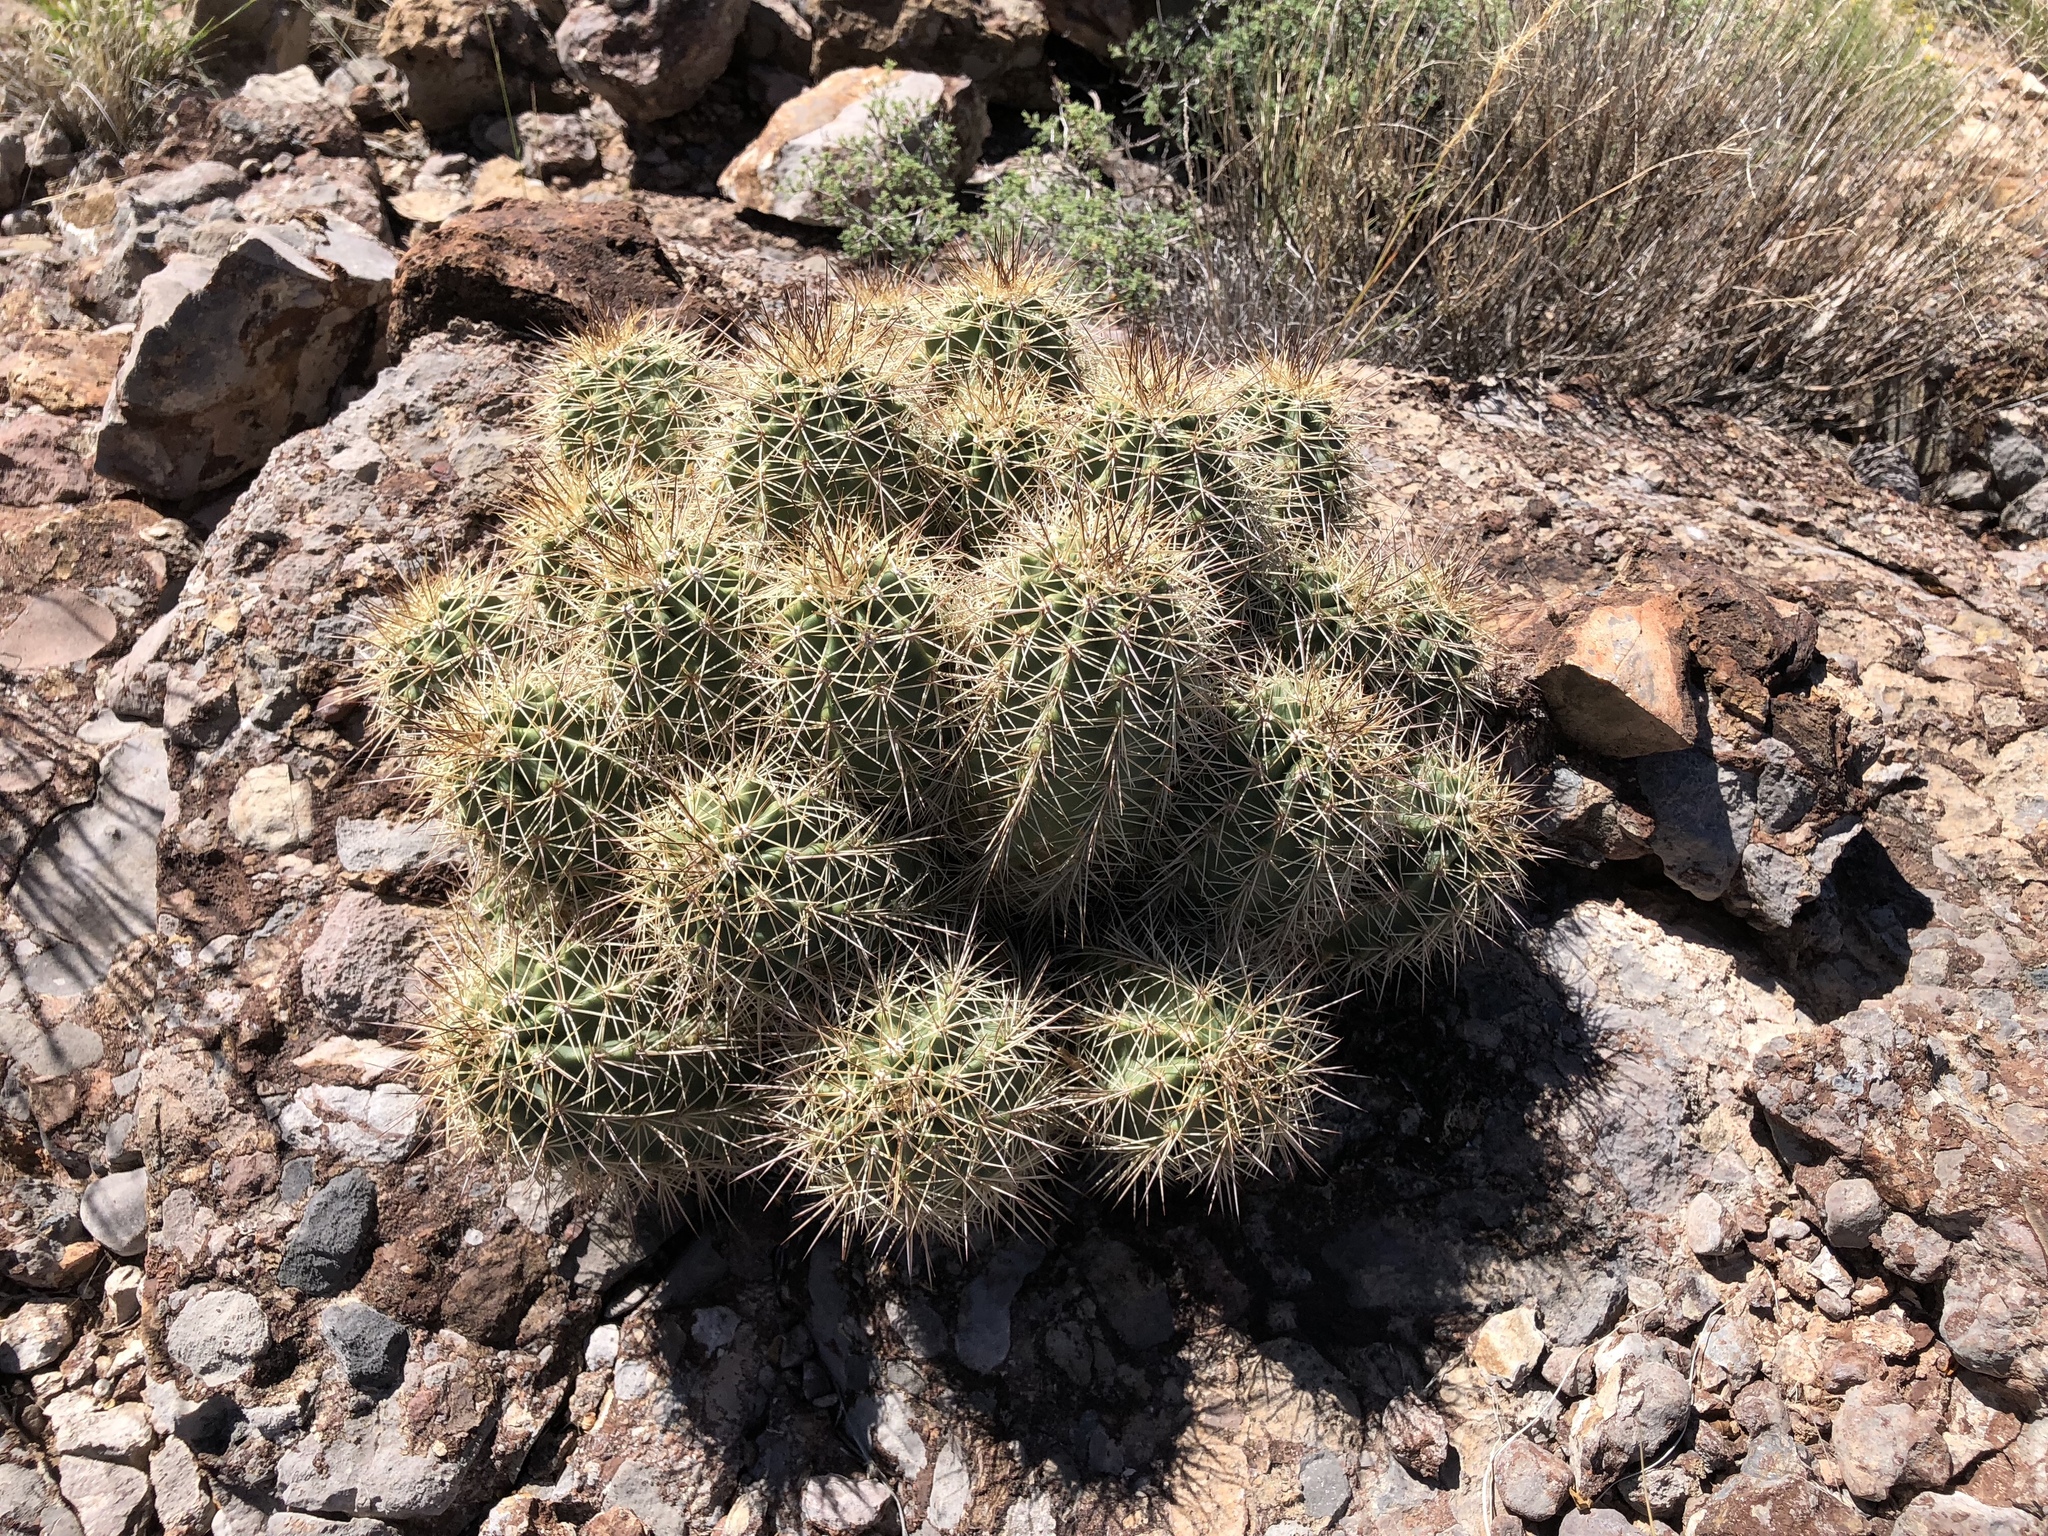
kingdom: Plantae
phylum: Tracheophyta
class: Magnoliopsida
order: Caryophyllales
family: Cactaceae
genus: Echinocereus
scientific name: Echinocereus coccineus
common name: Scarlet hedgehog cactus
